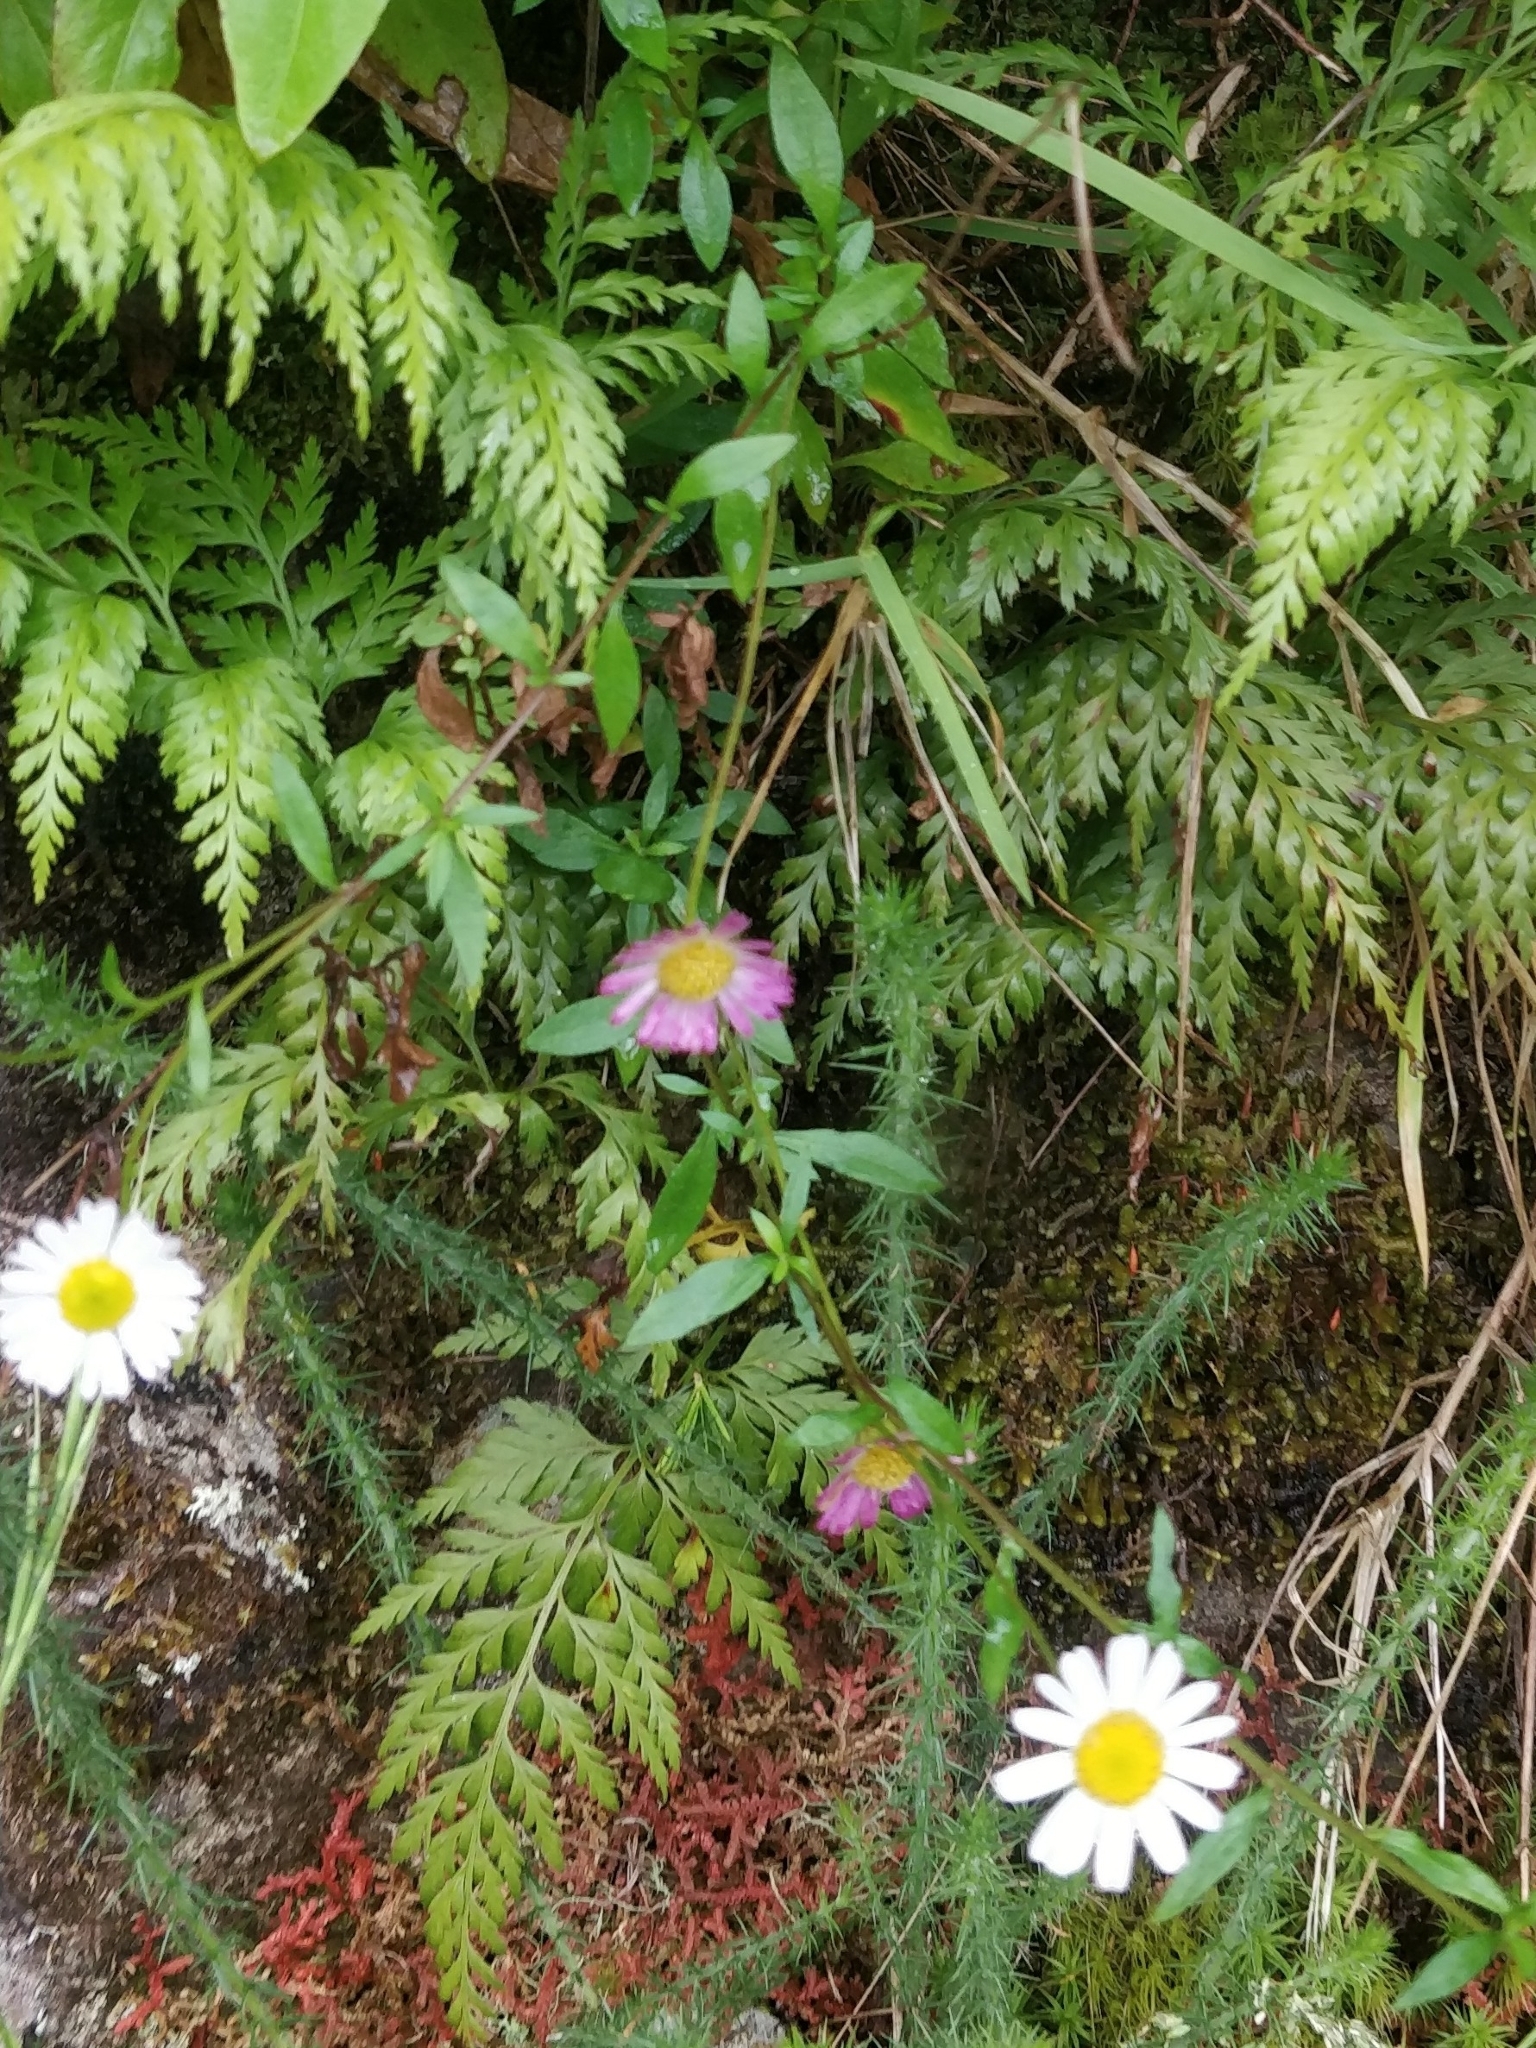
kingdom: Plantae
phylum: Tracheophyta
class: Polypodiopsida
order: Polypodiales
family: Aspleniaceae
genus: Asplenium
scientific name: Asplenium onopteris
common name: Irish spleenwort
